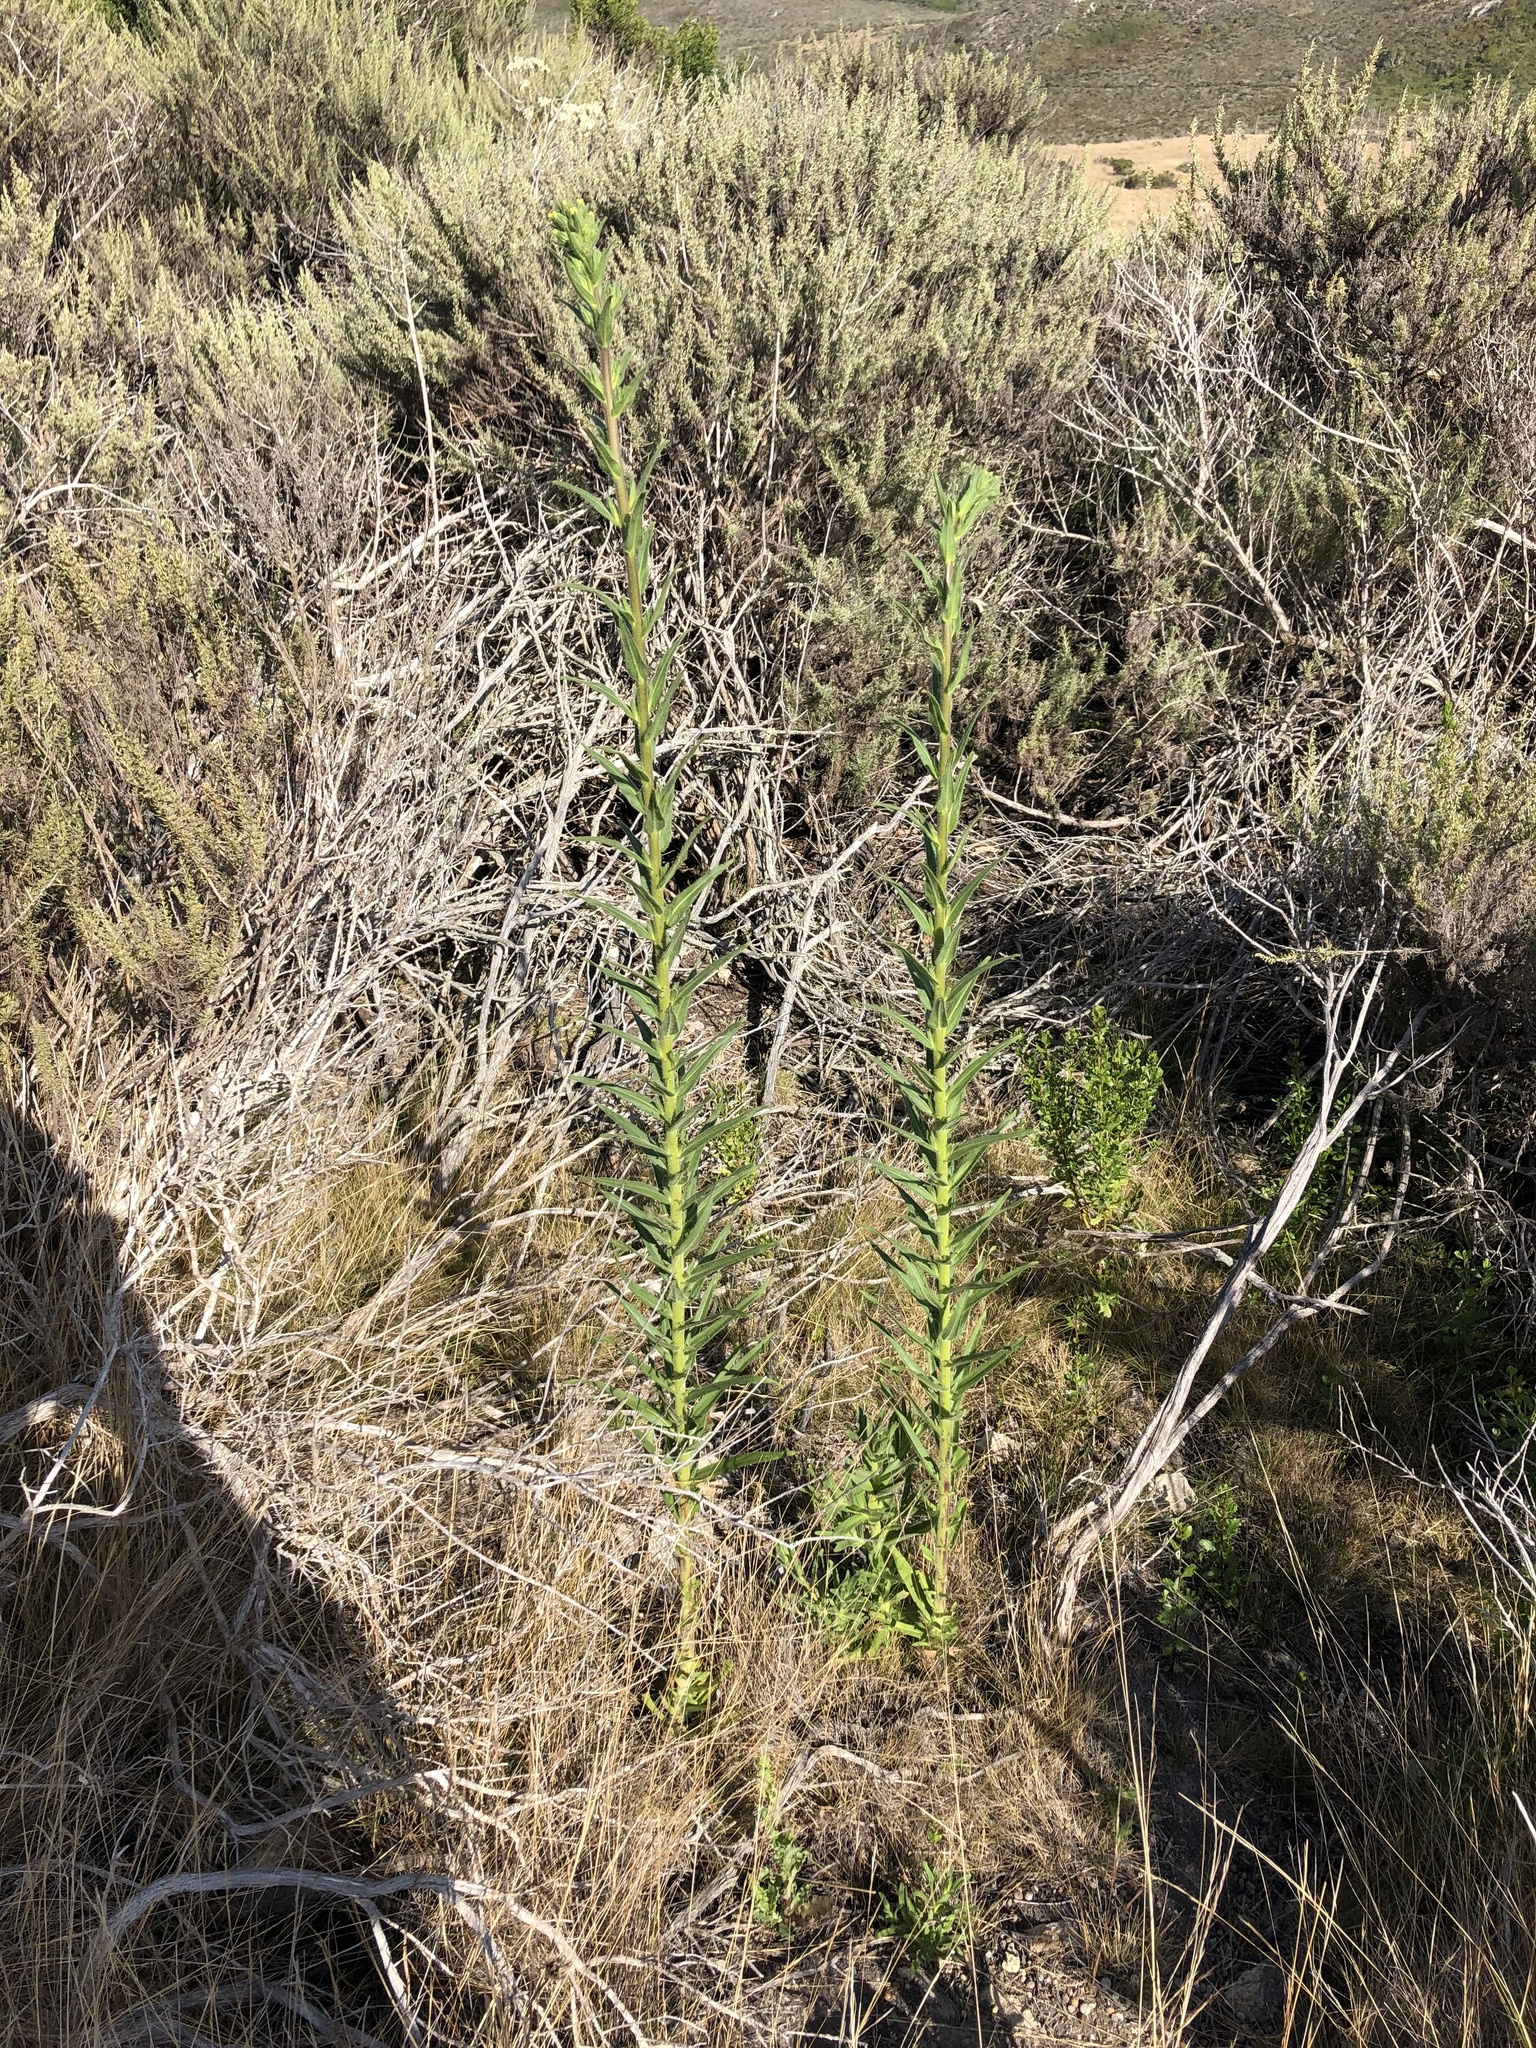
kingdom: Plantae
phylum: Tracheophyta
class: Magnoliopsida
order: Asterales
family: Asteraceae
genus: Madia
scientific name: Madia sativa
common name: Coast tarweed
